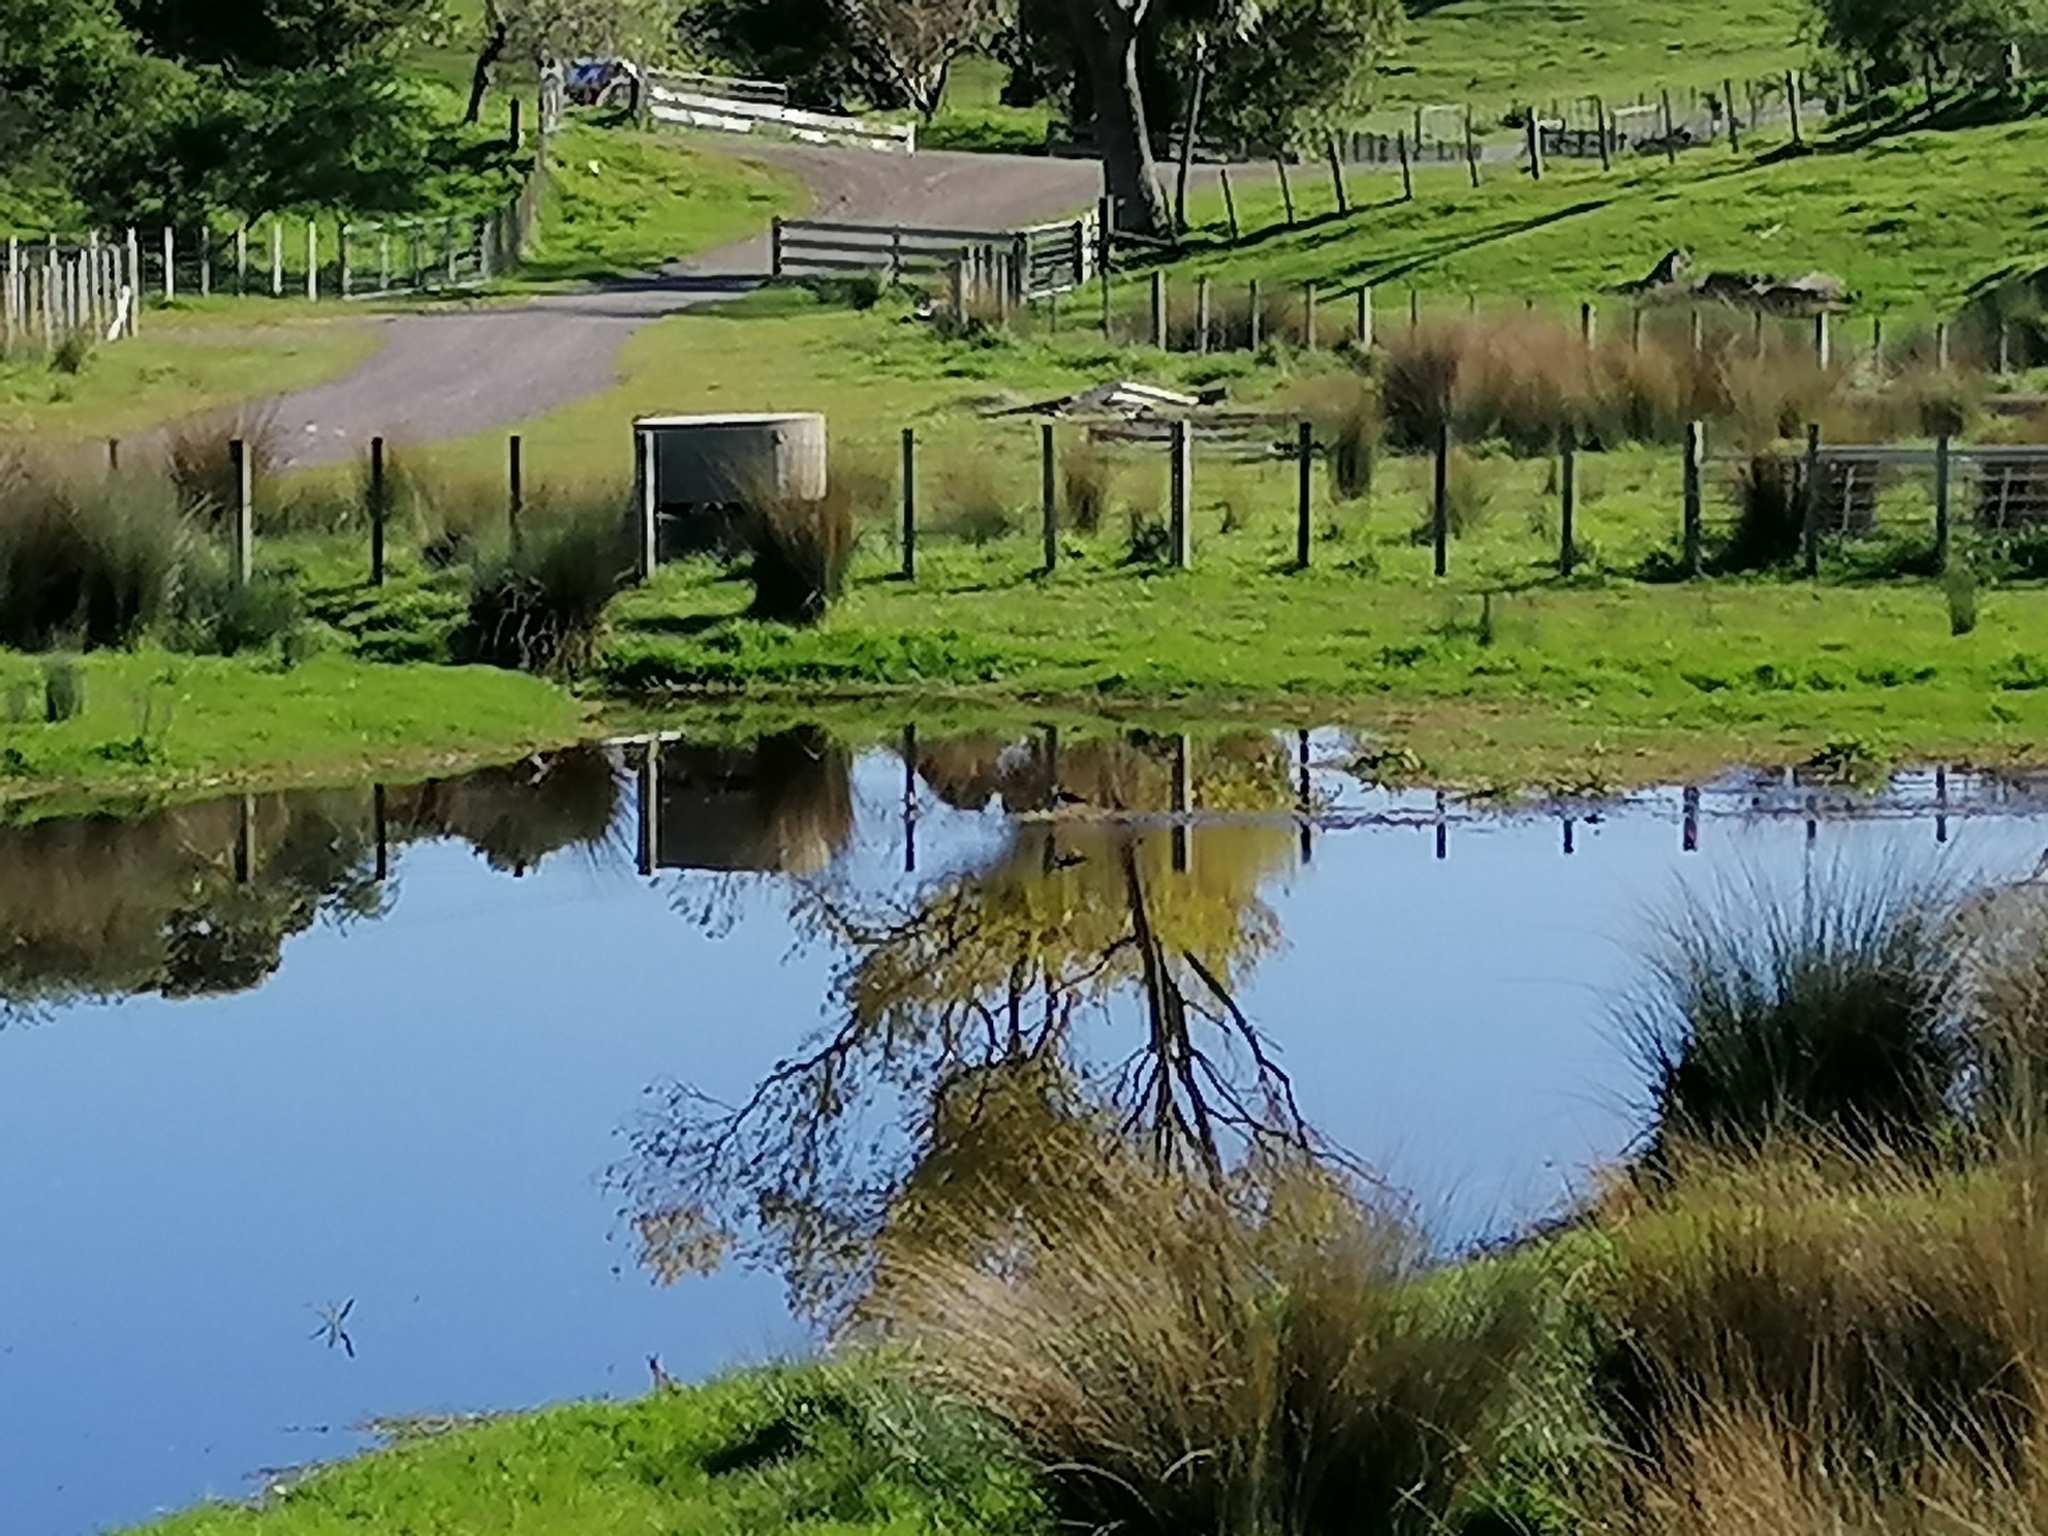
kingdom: Animalia
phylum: Chordata
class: Aves
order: Charadriiformes
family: Recurvirostridae
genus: Himantopus
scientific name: Himantopus leucocephalus
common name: White-headed stilt
